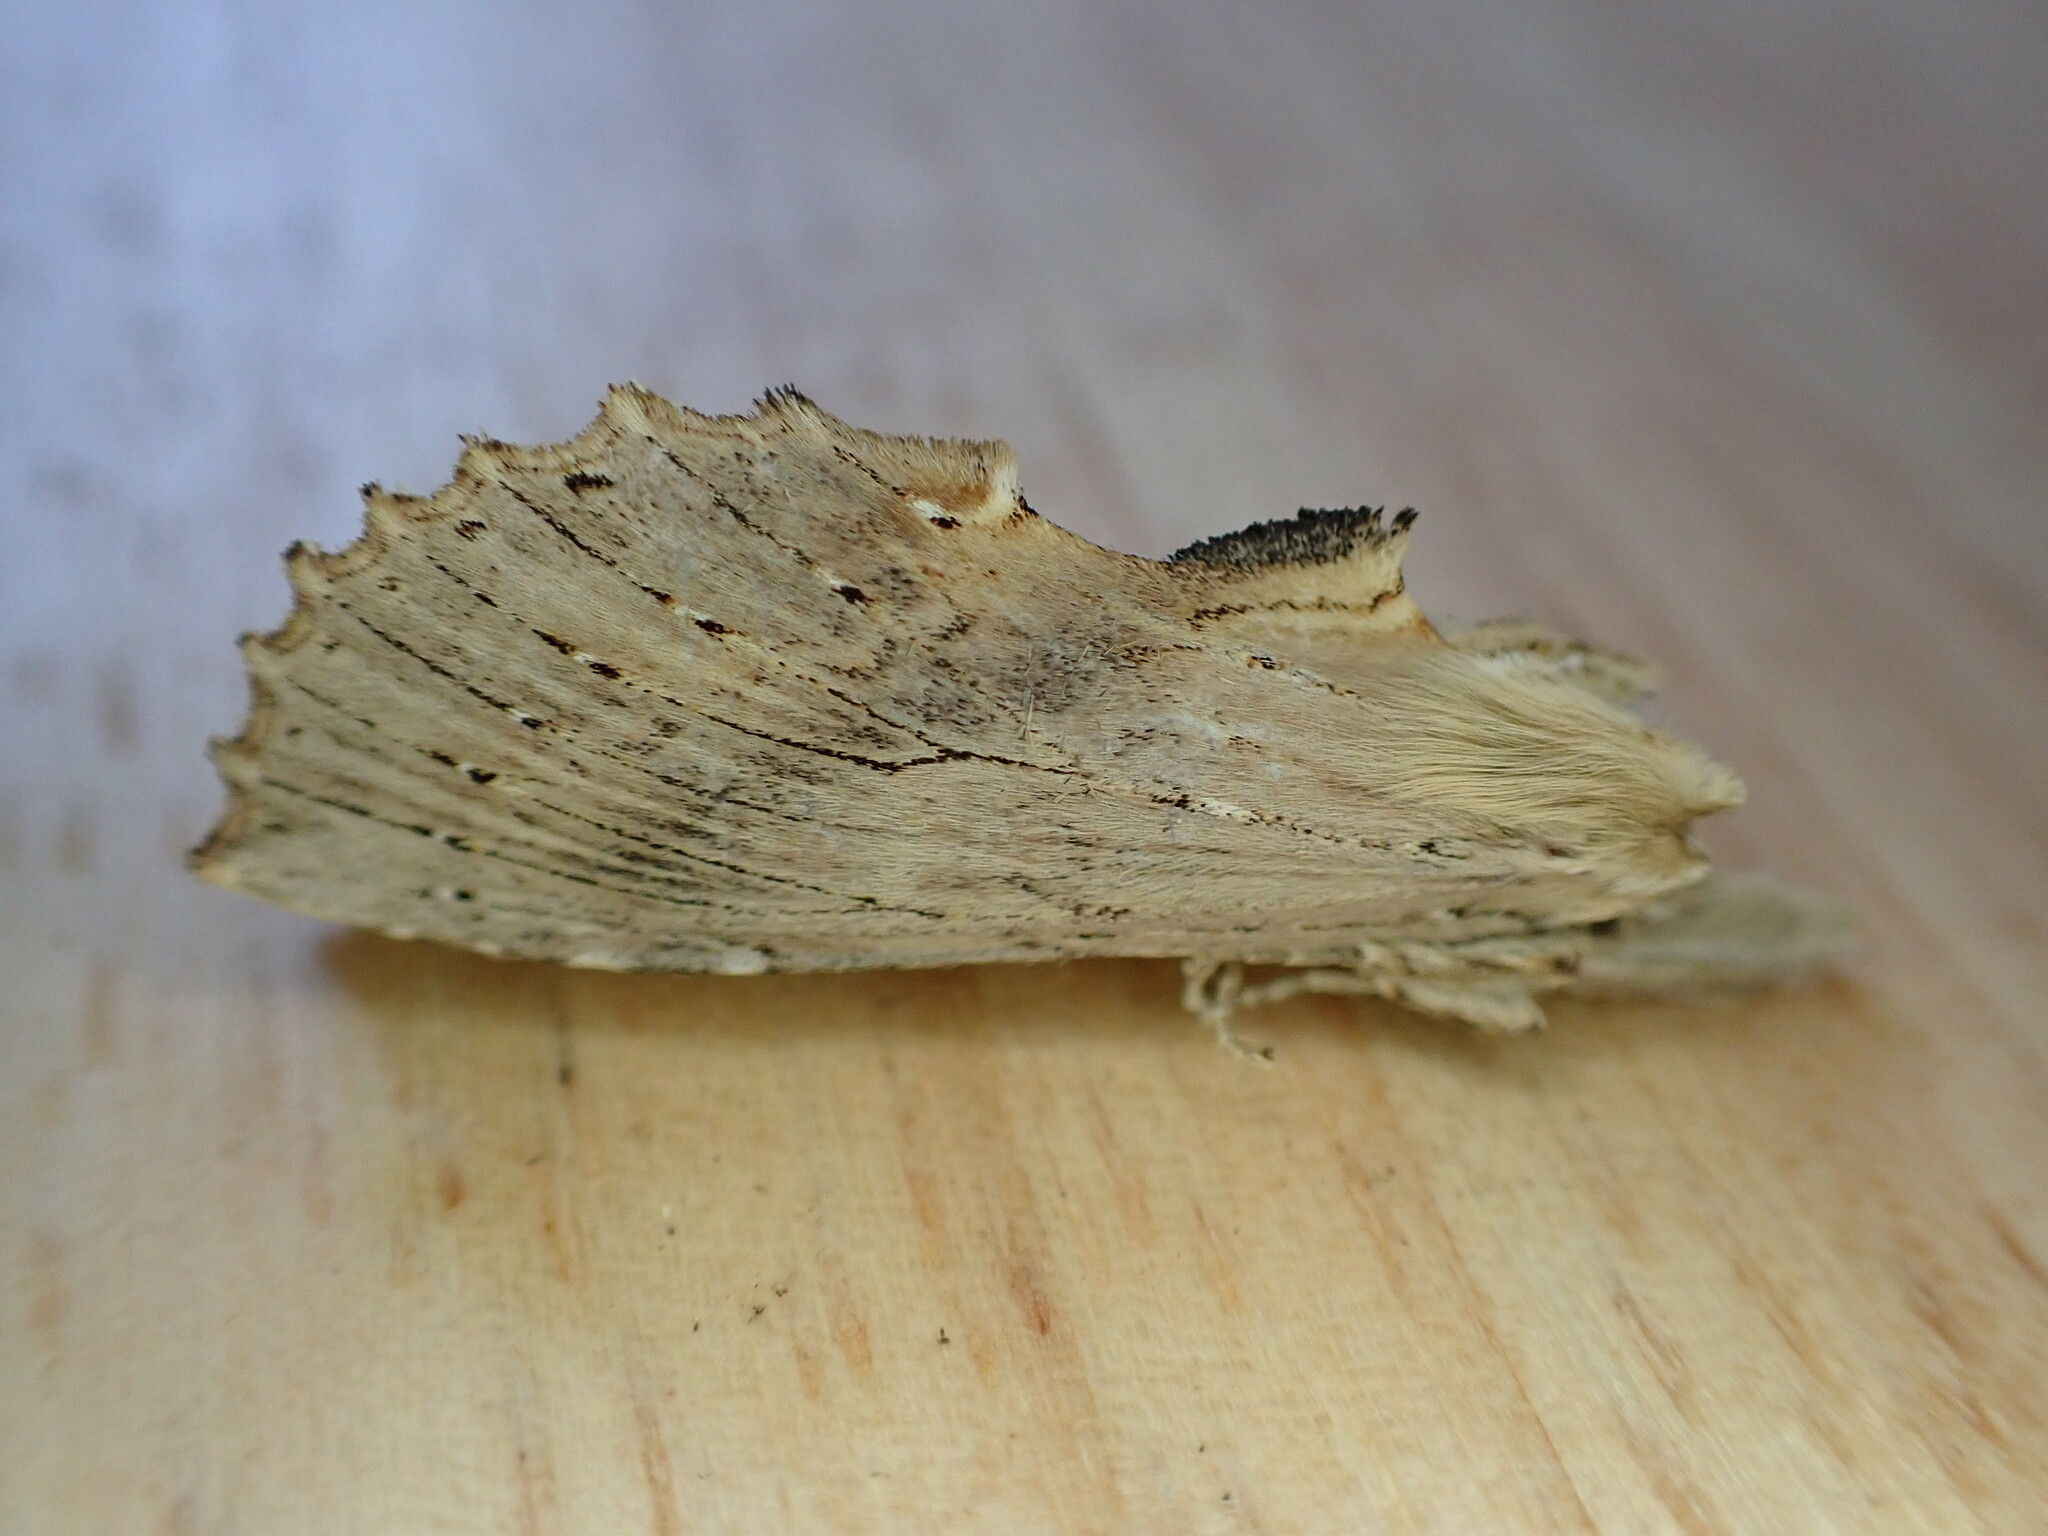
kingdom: Animalia
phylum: Arthropoda
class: Insecta
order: Lepidoptera
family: Notodontidae
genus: Pterostoma
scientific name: Pterostoma palpina
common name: Pale prominent
